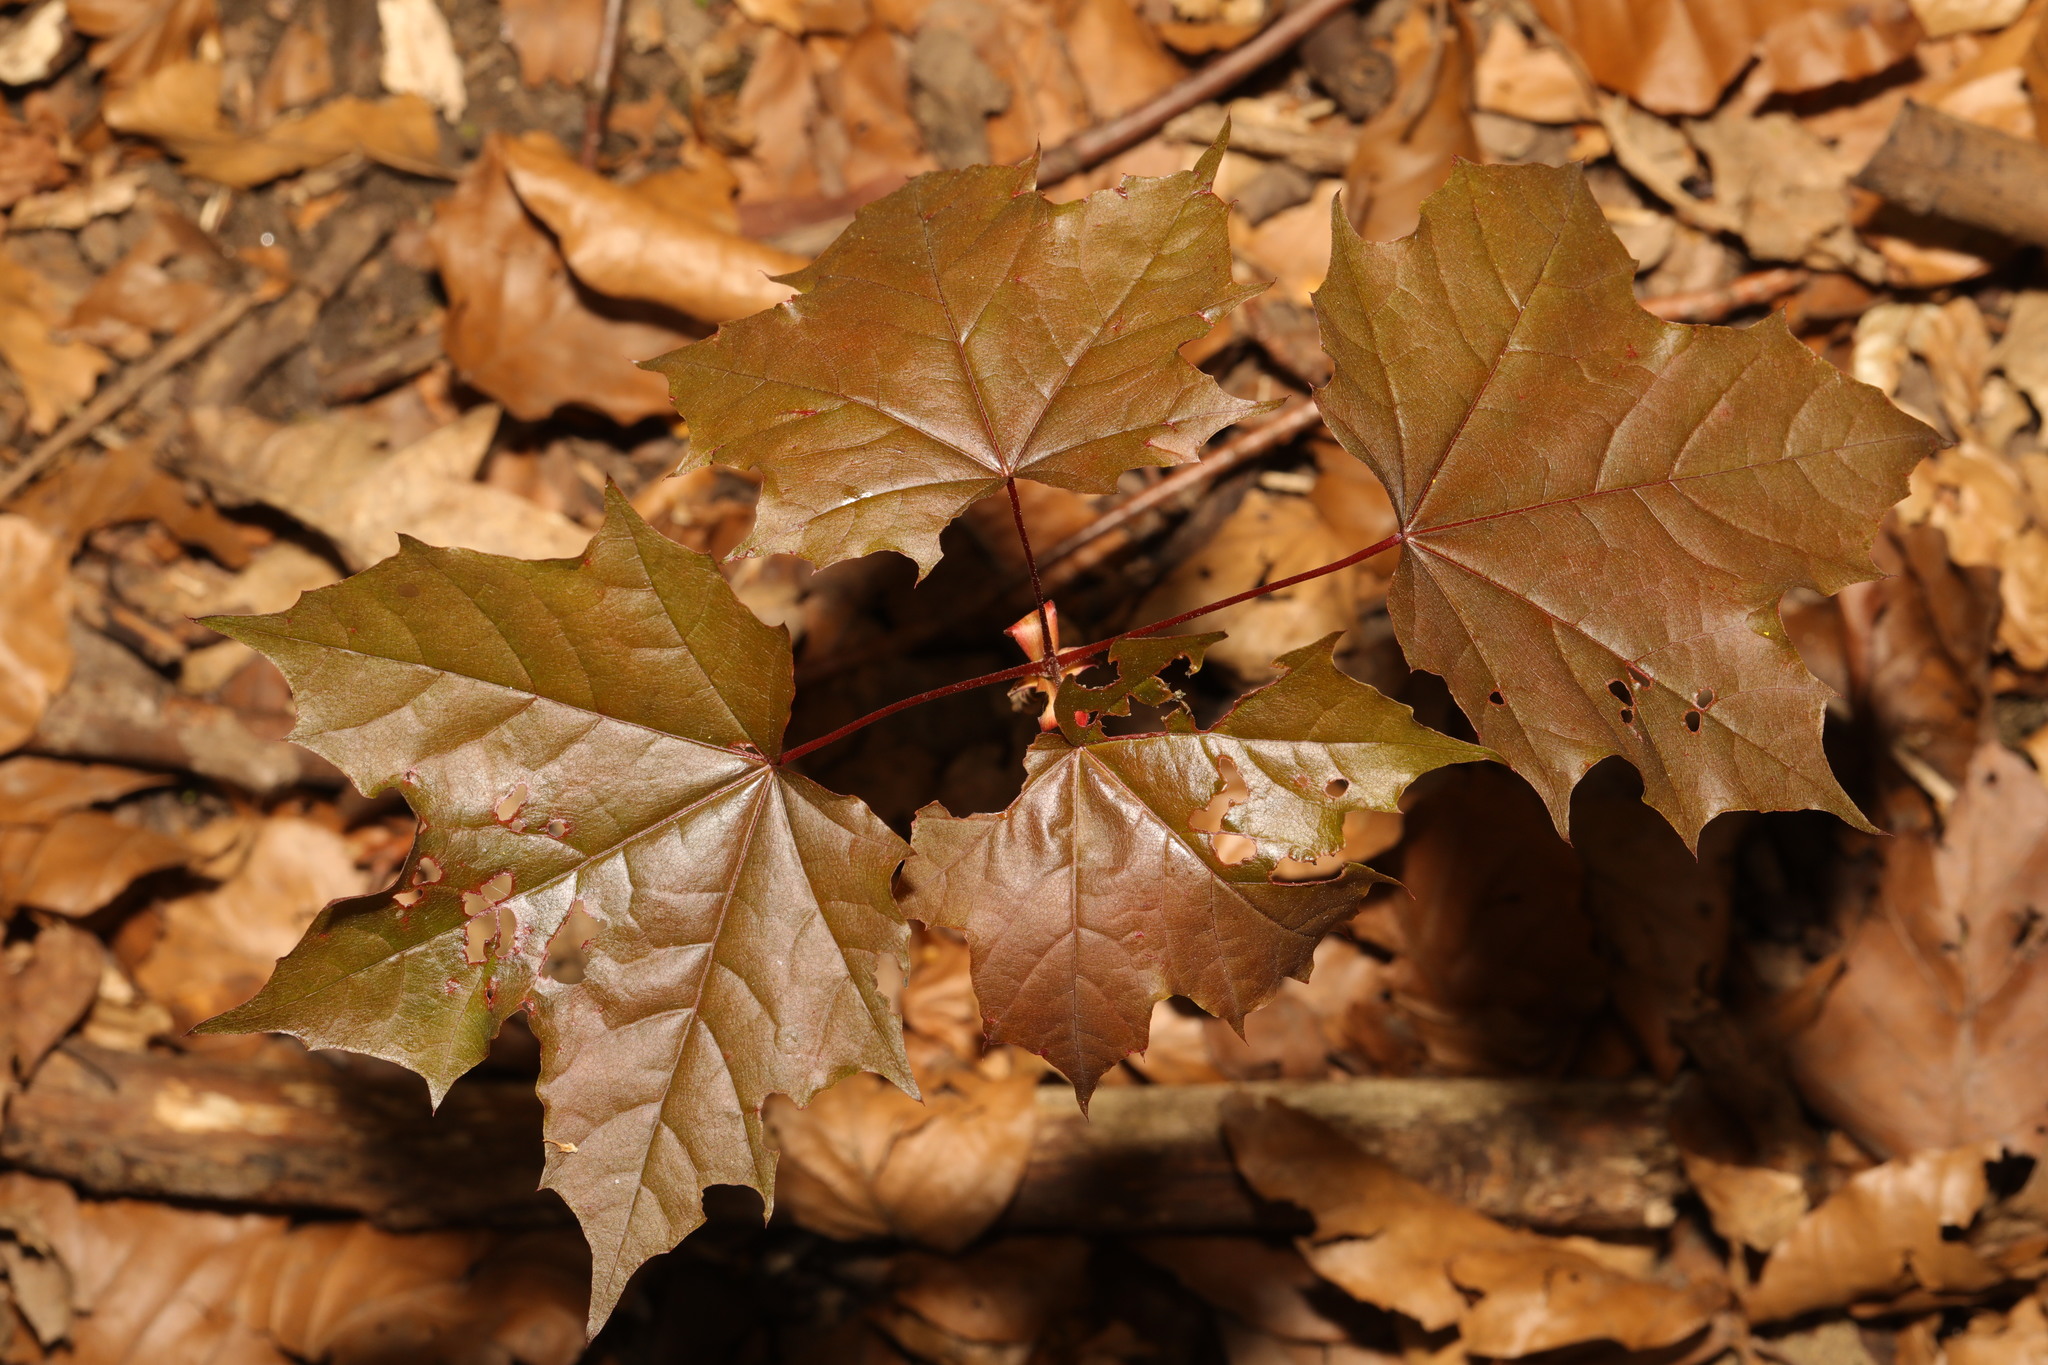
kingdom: Plantae
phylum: Tracheophyta
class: Magnoliopsida
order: Sapindales
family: Sapindaceae
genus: Acer
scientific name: Acer platanoides
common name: Norway maple
